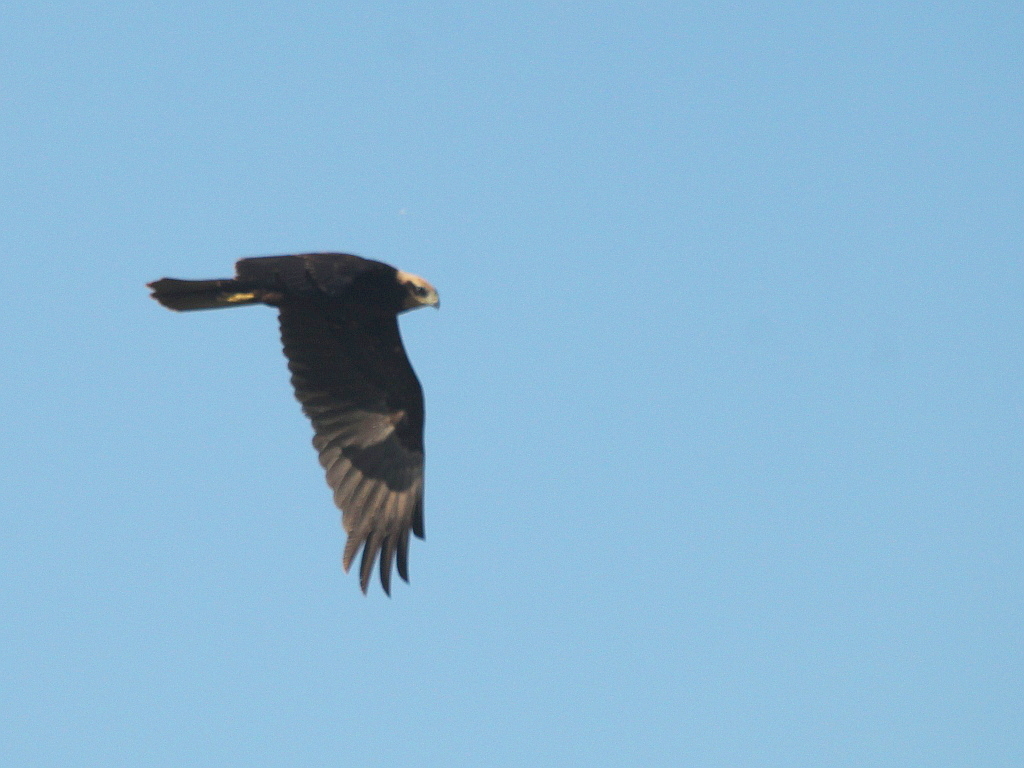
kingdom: Animalia
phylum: Chordata
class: Aves
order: Accipitriformes
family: Accipitridae
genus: Circus
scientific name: Circus aeruginosus
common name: Western marsh harrier
